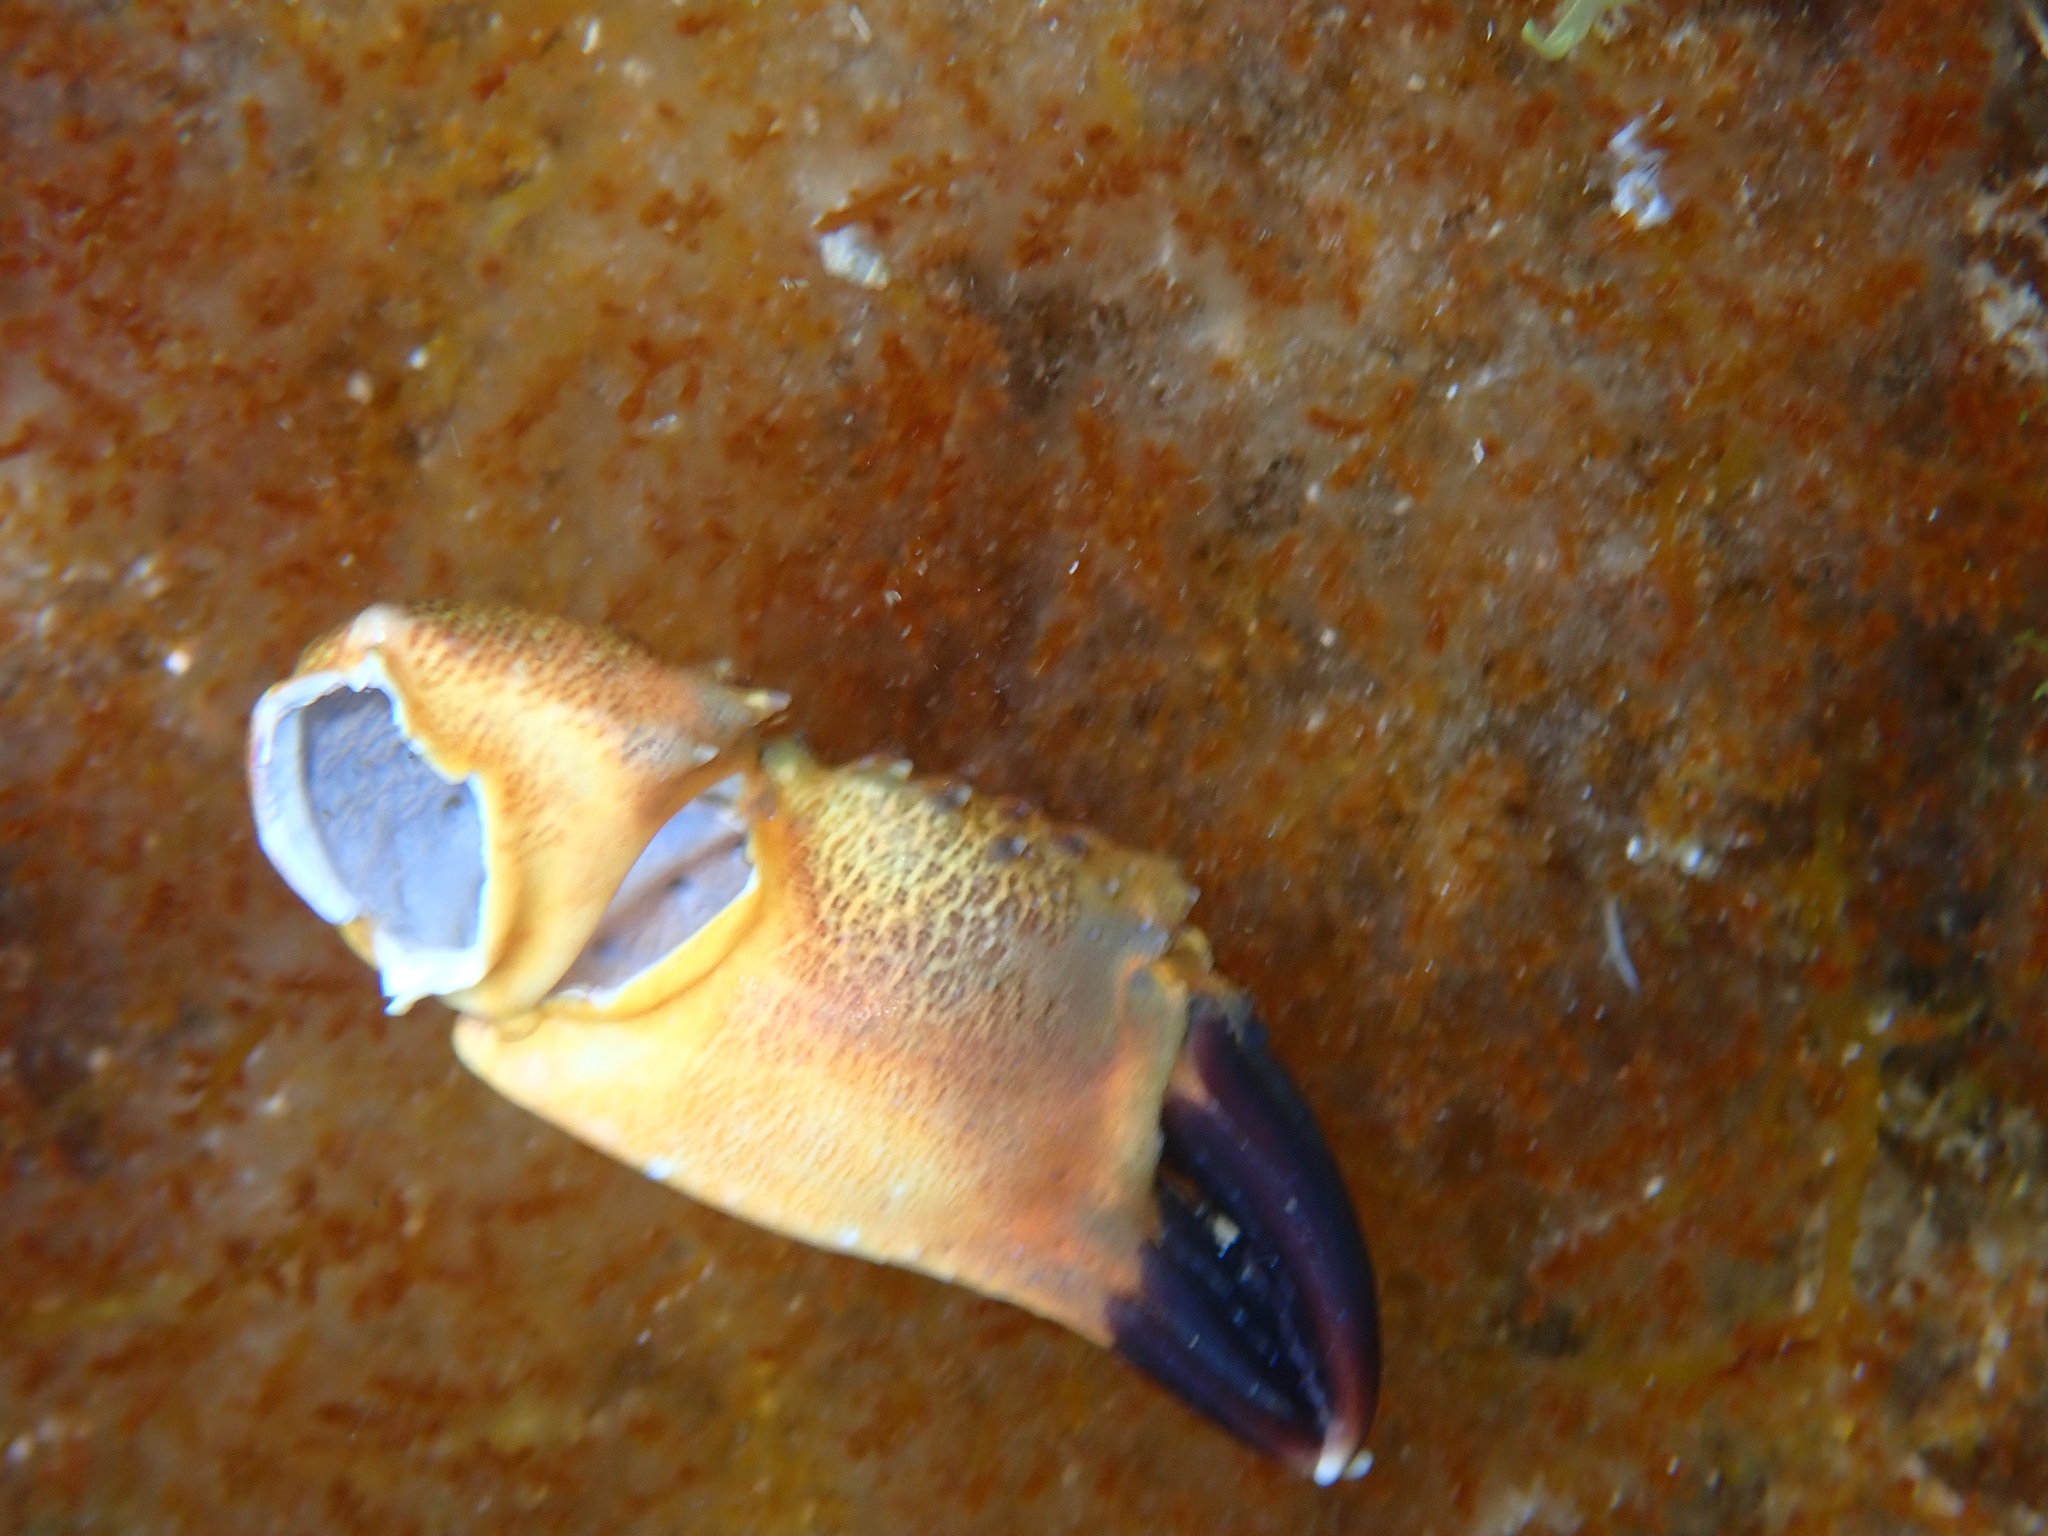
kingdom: Animalia
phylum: Arthropoda
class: Malacostraca
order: Decapoda
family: Eriphiidae
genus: Eriphia
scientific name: Eriphia verrucosa
